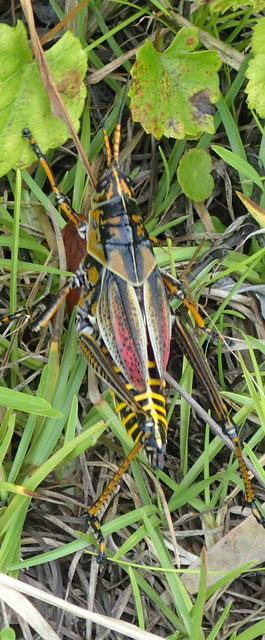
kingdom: Animalia
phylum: Arthropoda
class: Insecta
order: Orthoptera
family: Romaleidae
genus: Romalea
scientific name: Romalea microptera
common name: Eastern lubber grasshopper
